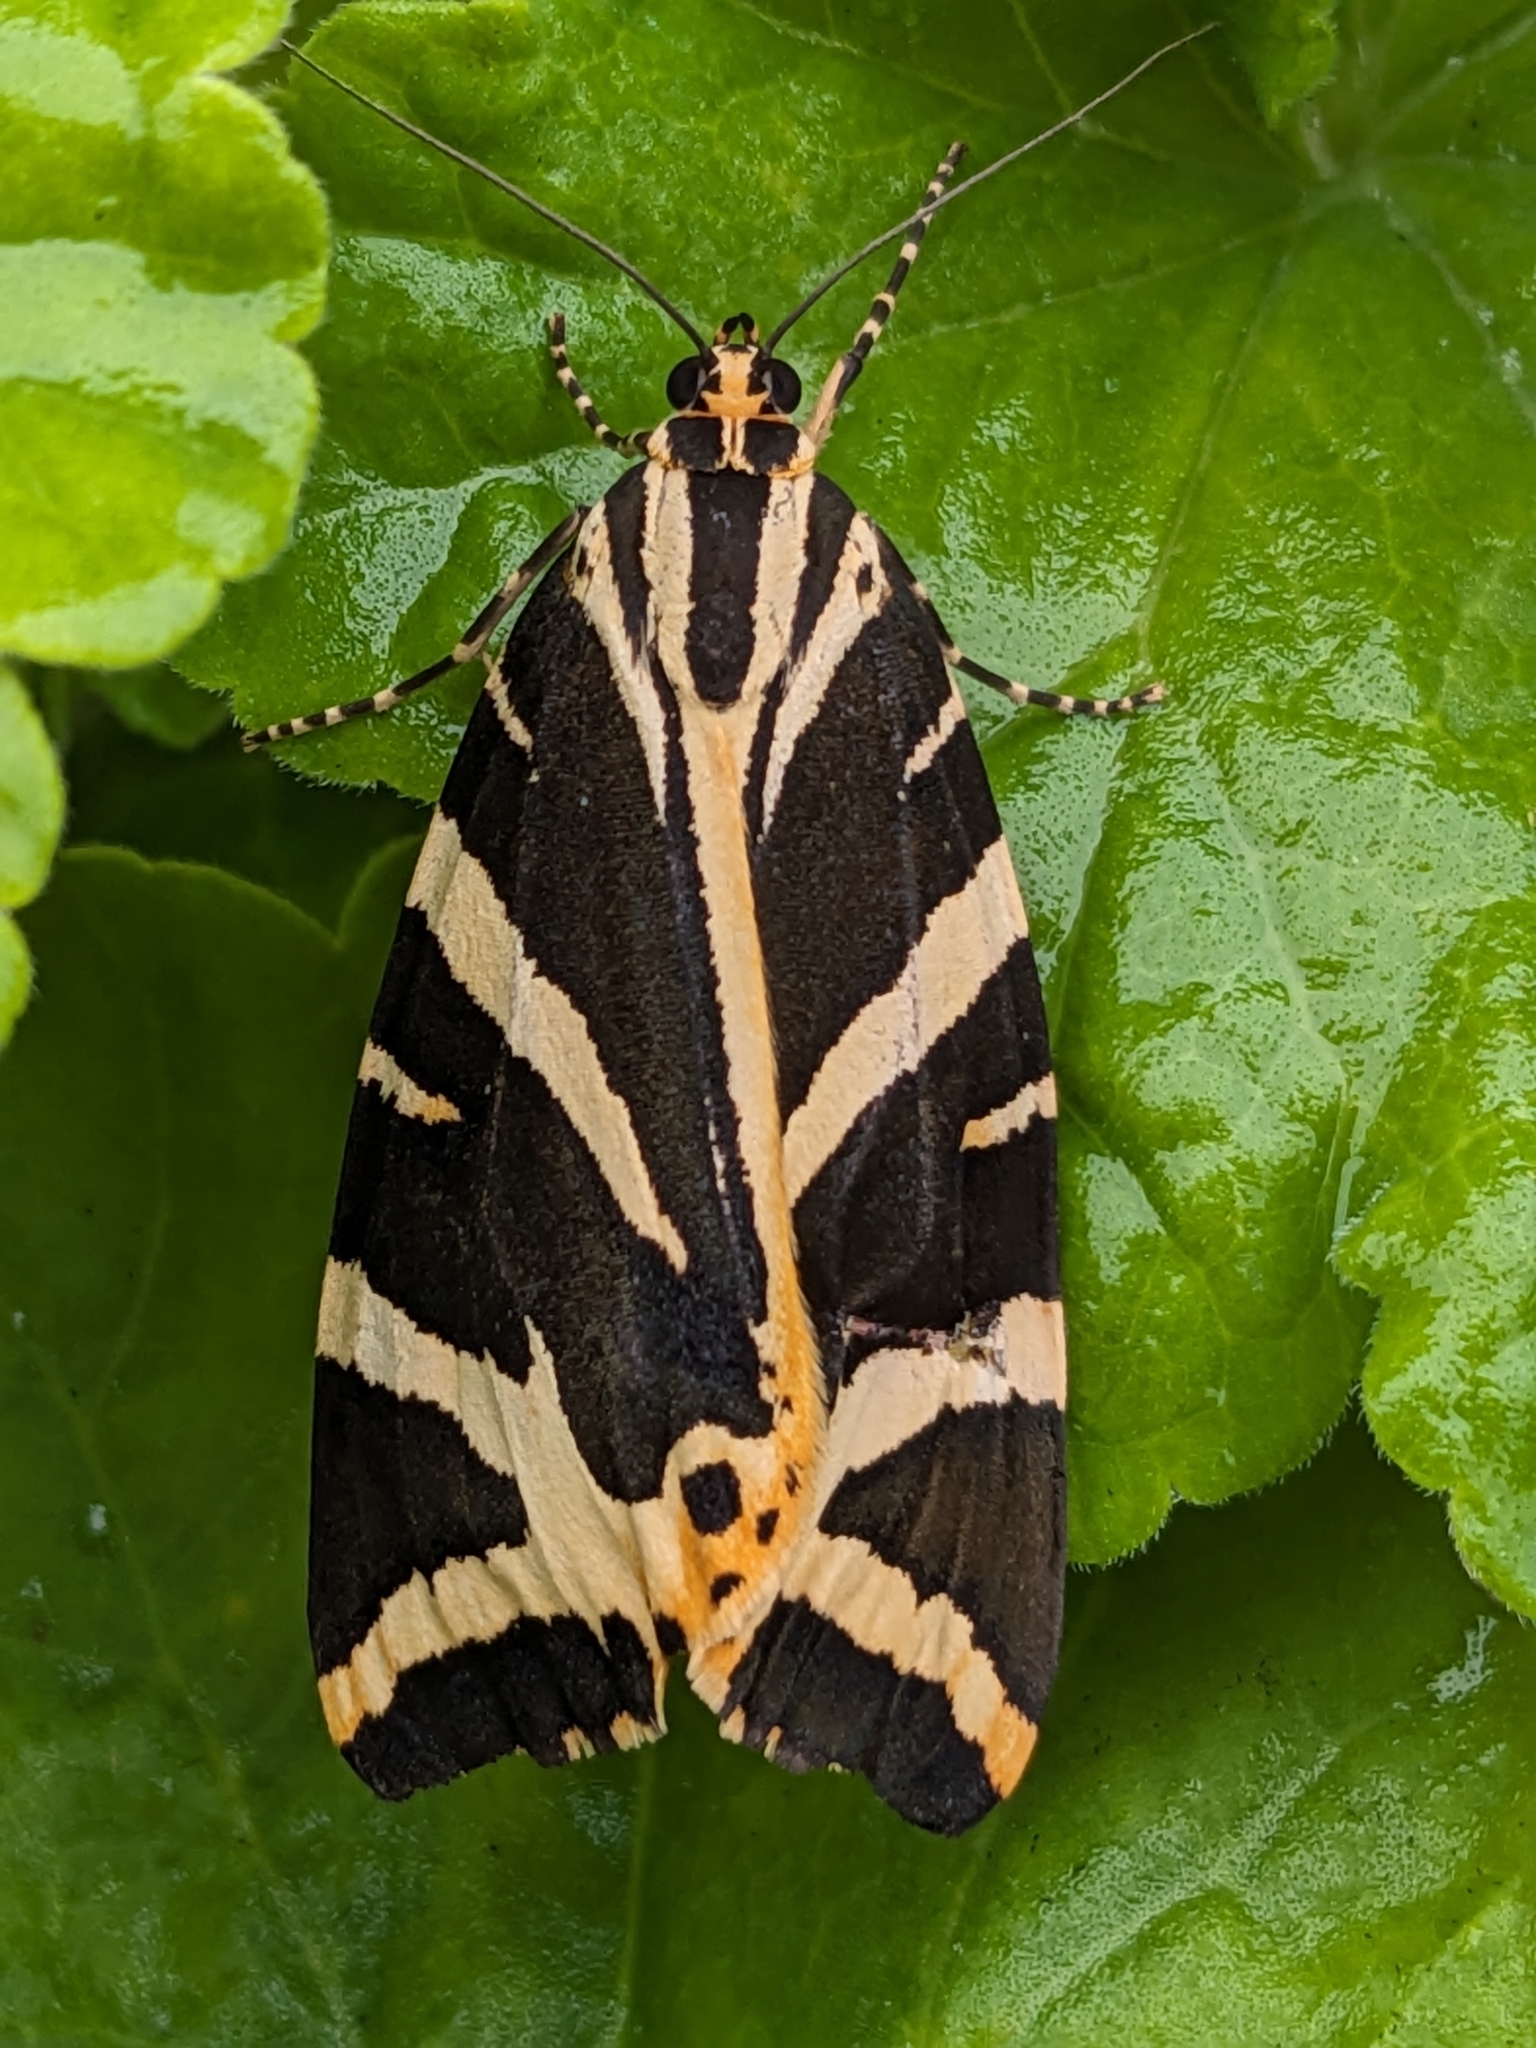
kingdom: Animalia
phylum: Arthropoda
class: Insecta
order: Lepidoptera
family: Erebidae
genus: Euplagia
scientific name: Euplagia quadripunctaria
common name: Jersey tiger
